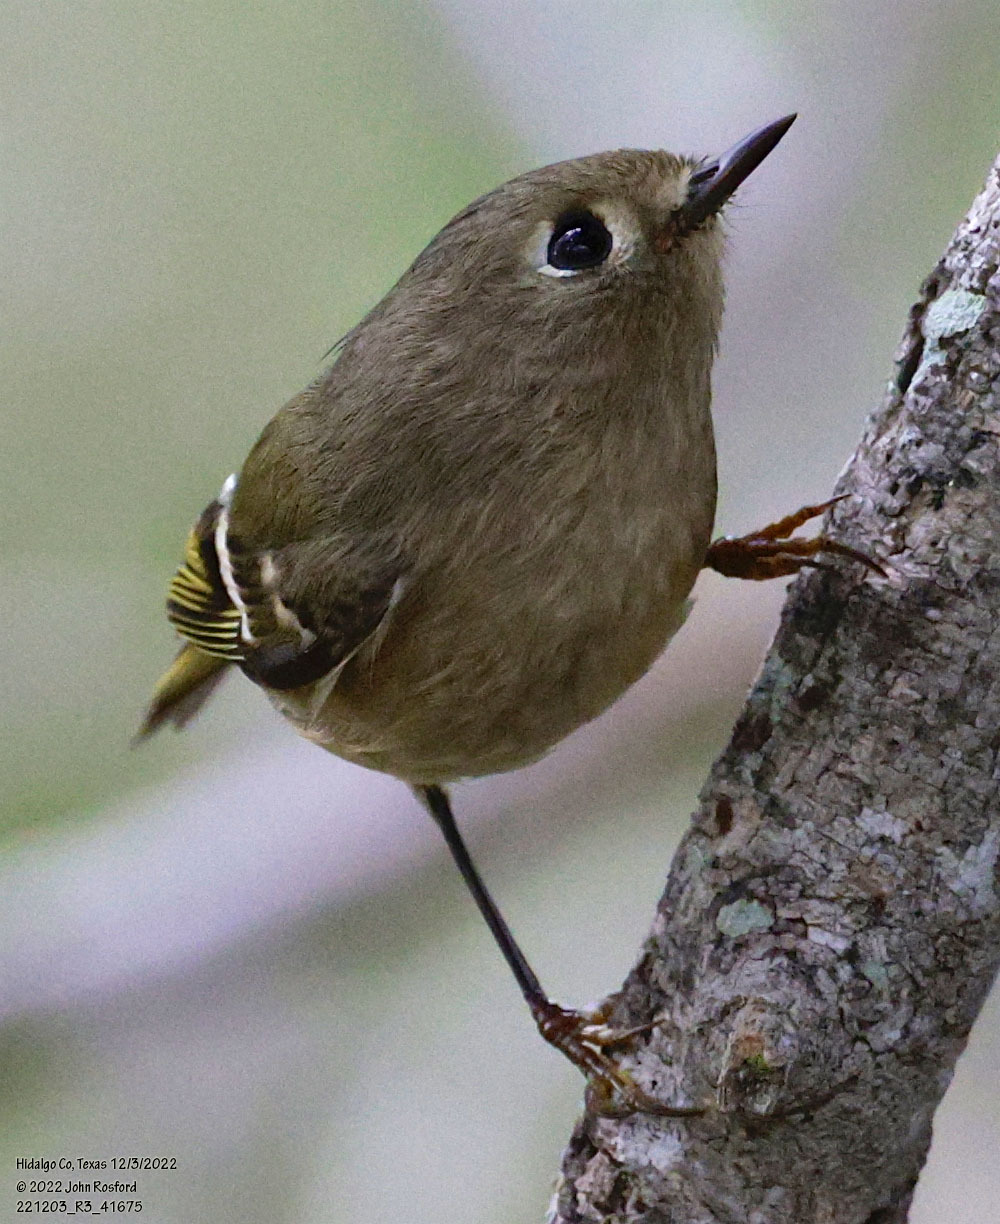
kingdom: Animalia
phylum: Chordata
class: Aves
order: Passeriformes
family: Regulidae
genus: Regulus
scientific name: Regulus calendula
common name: Ruby-crowned kinglet
